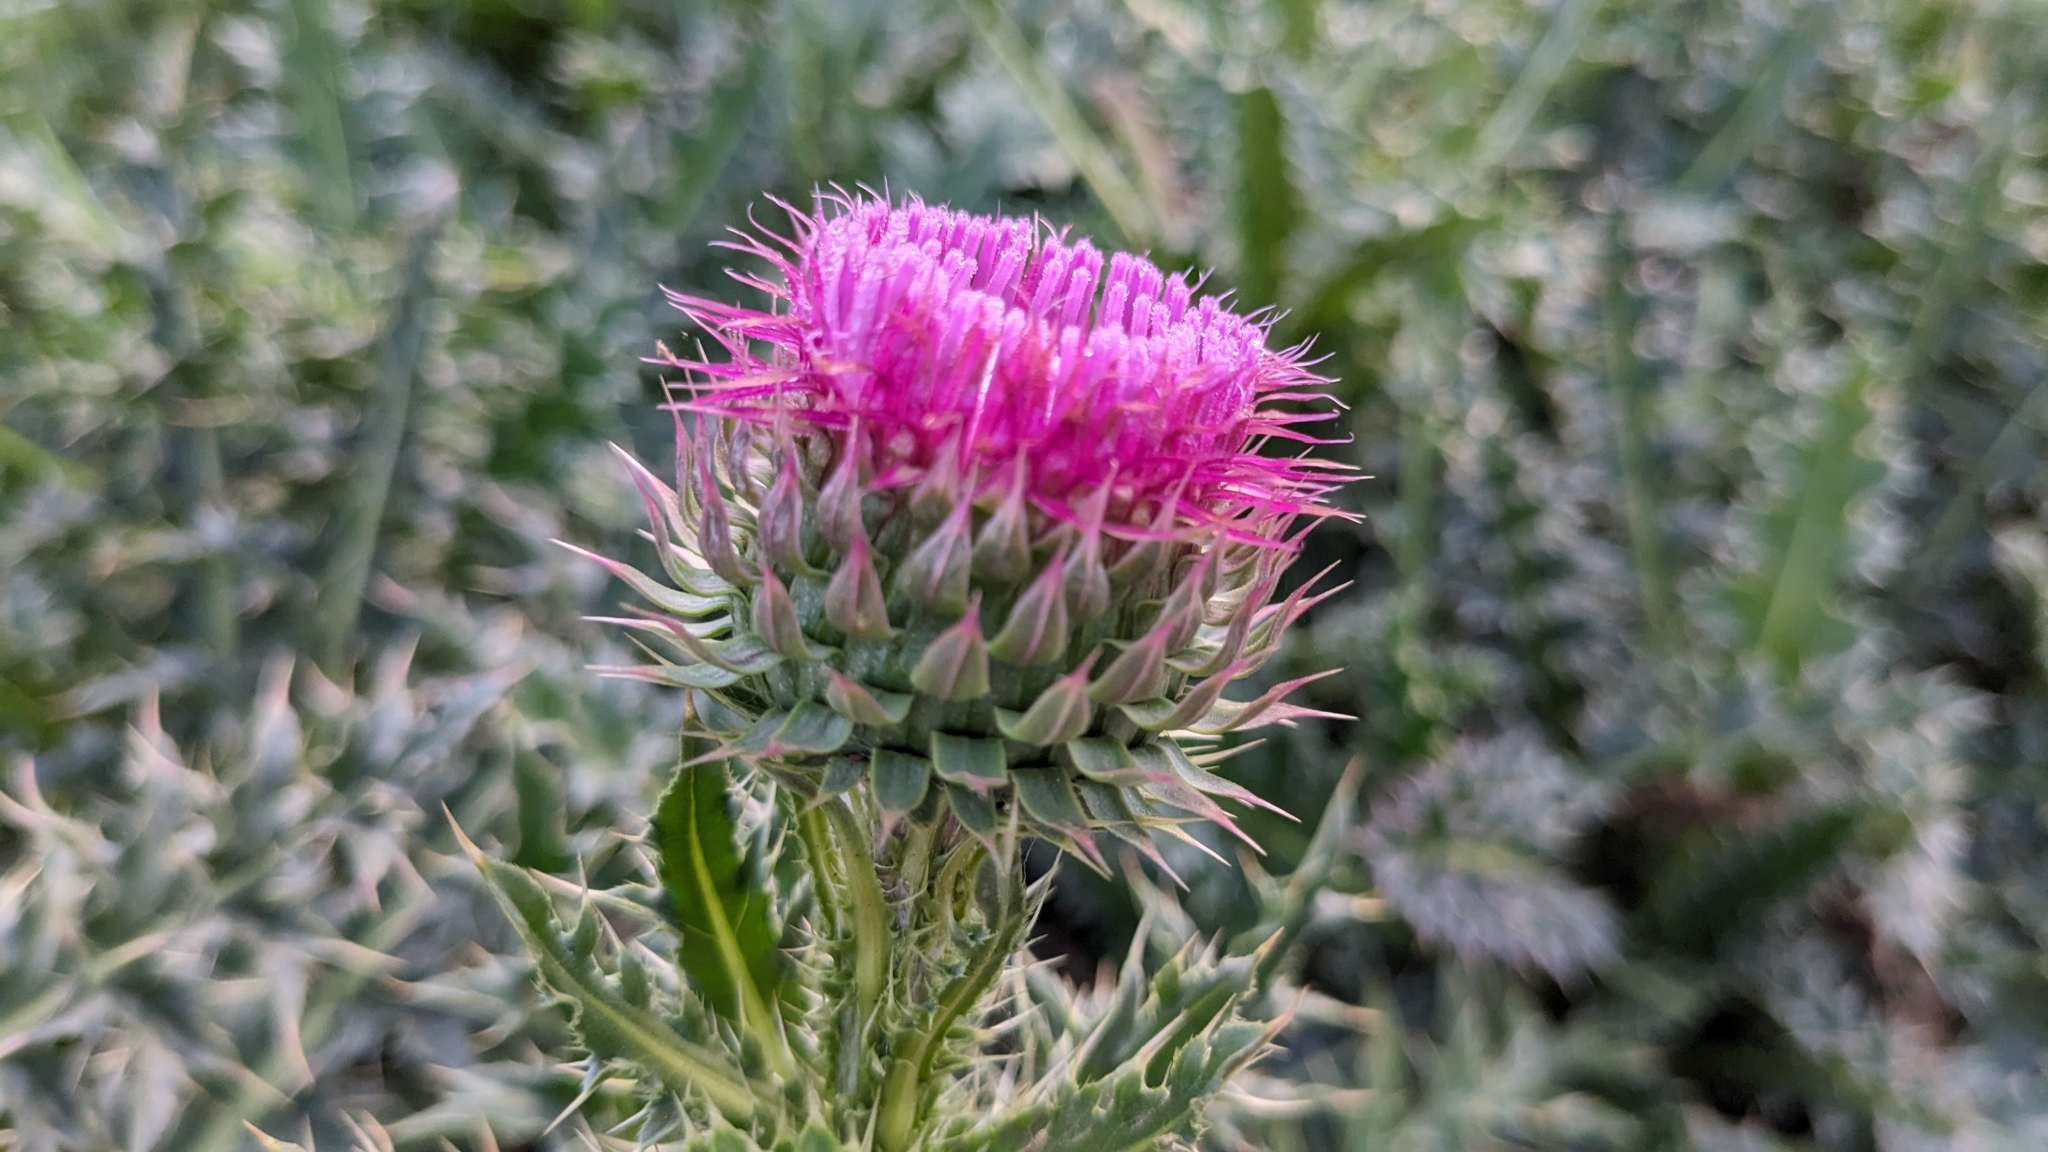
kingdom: Plantae
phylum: Tracheophyta
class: Magnoliopsida
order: Asterales
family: Asteraceae
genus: Carduus
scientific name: Carduus nutans
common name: Musk thistle
